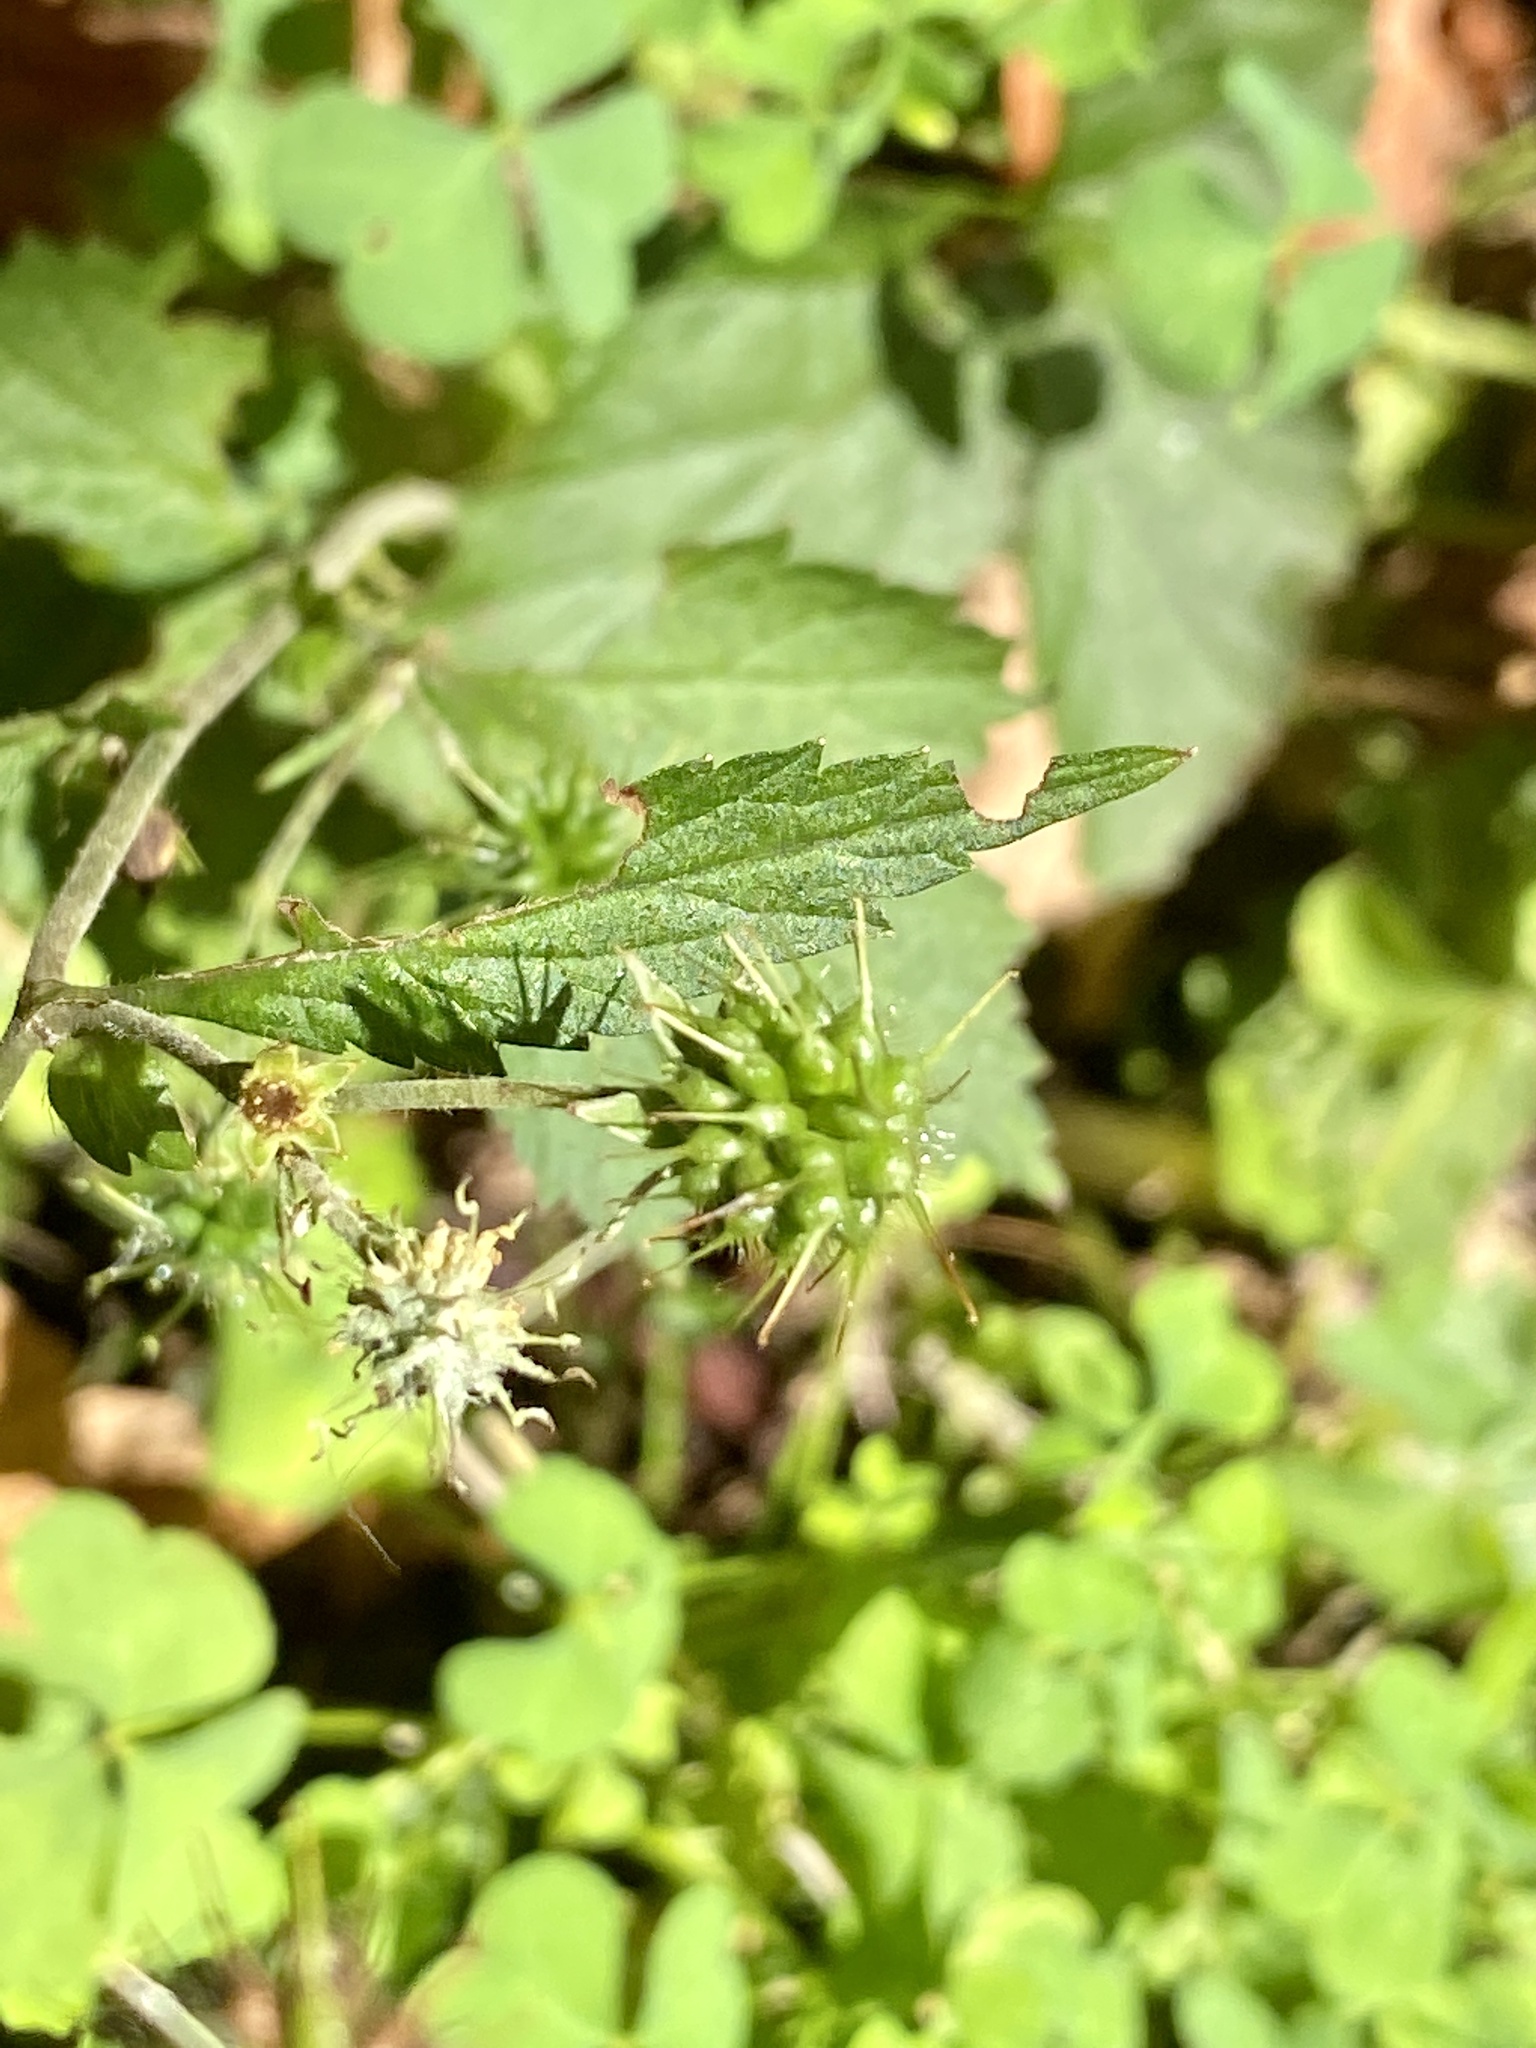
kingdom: Plantae
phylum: Tracheophyta
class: Magnoliopsida
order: Rosales
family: Rosaceae
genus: Geum
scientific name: Geum canadense
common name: White avens
